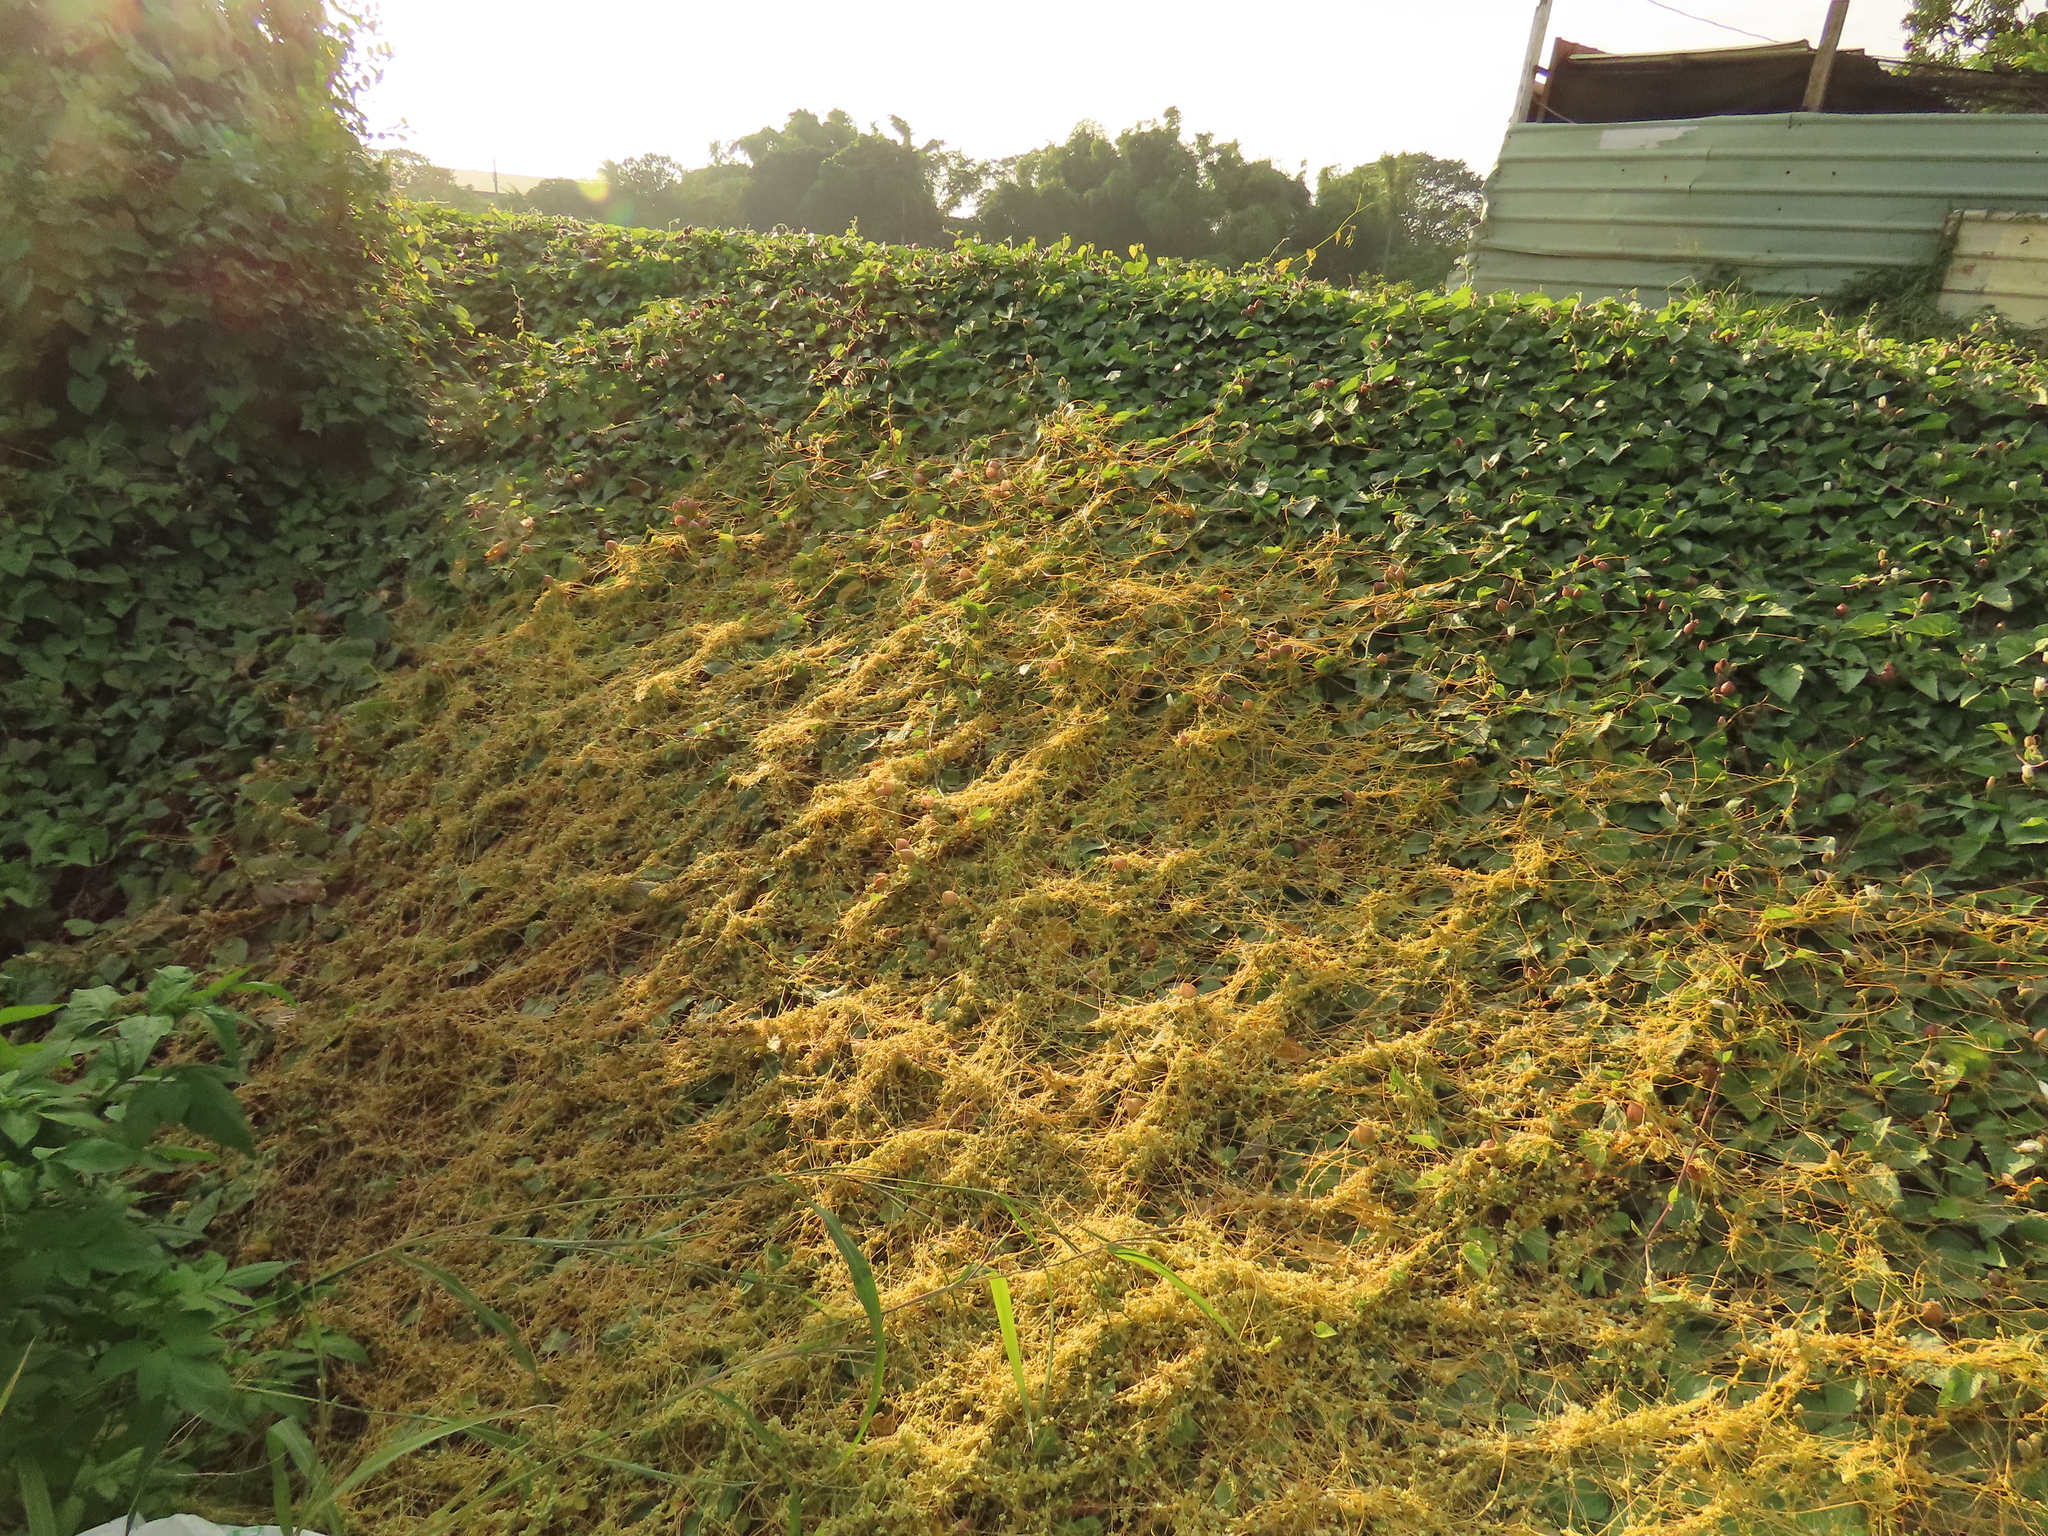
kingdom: Plantae
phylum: Tracheophyta
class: Magnoliopsida
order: Solanales
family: Convolvulaceae
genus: Operculina
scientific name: Operculina turpethum
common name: Transparent wood-rose
